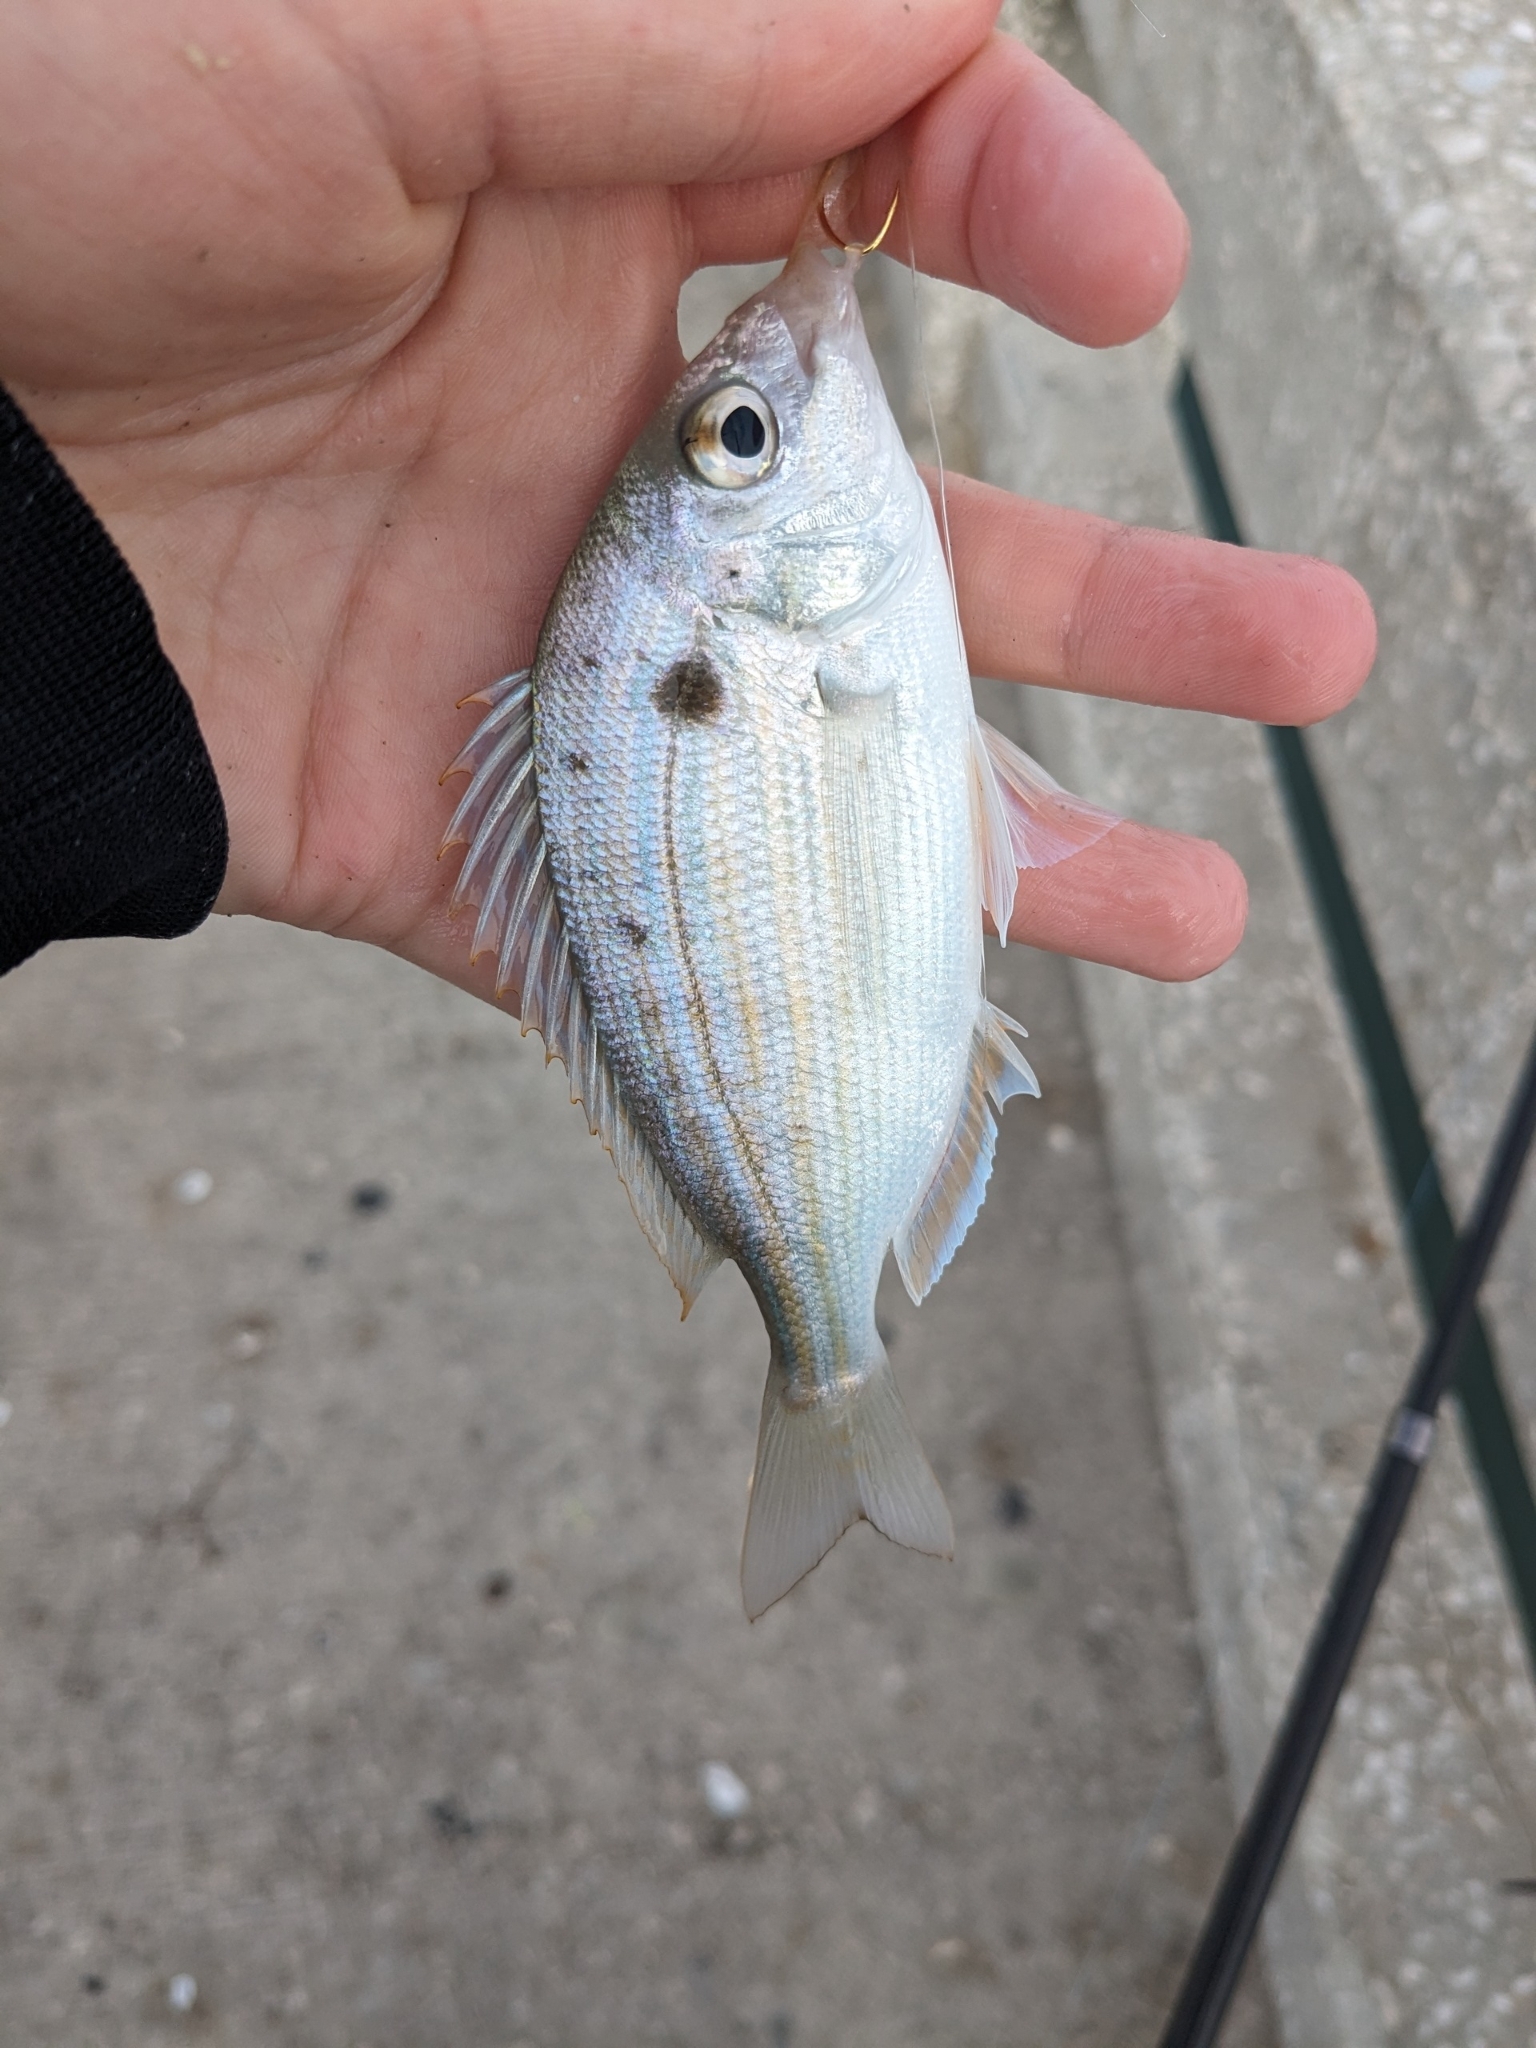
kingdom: Animalia
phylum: Chordata
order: Perciformes
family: Sparidae
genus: Lagodon
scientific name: Lagodon rhomboides
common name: Pinfish
